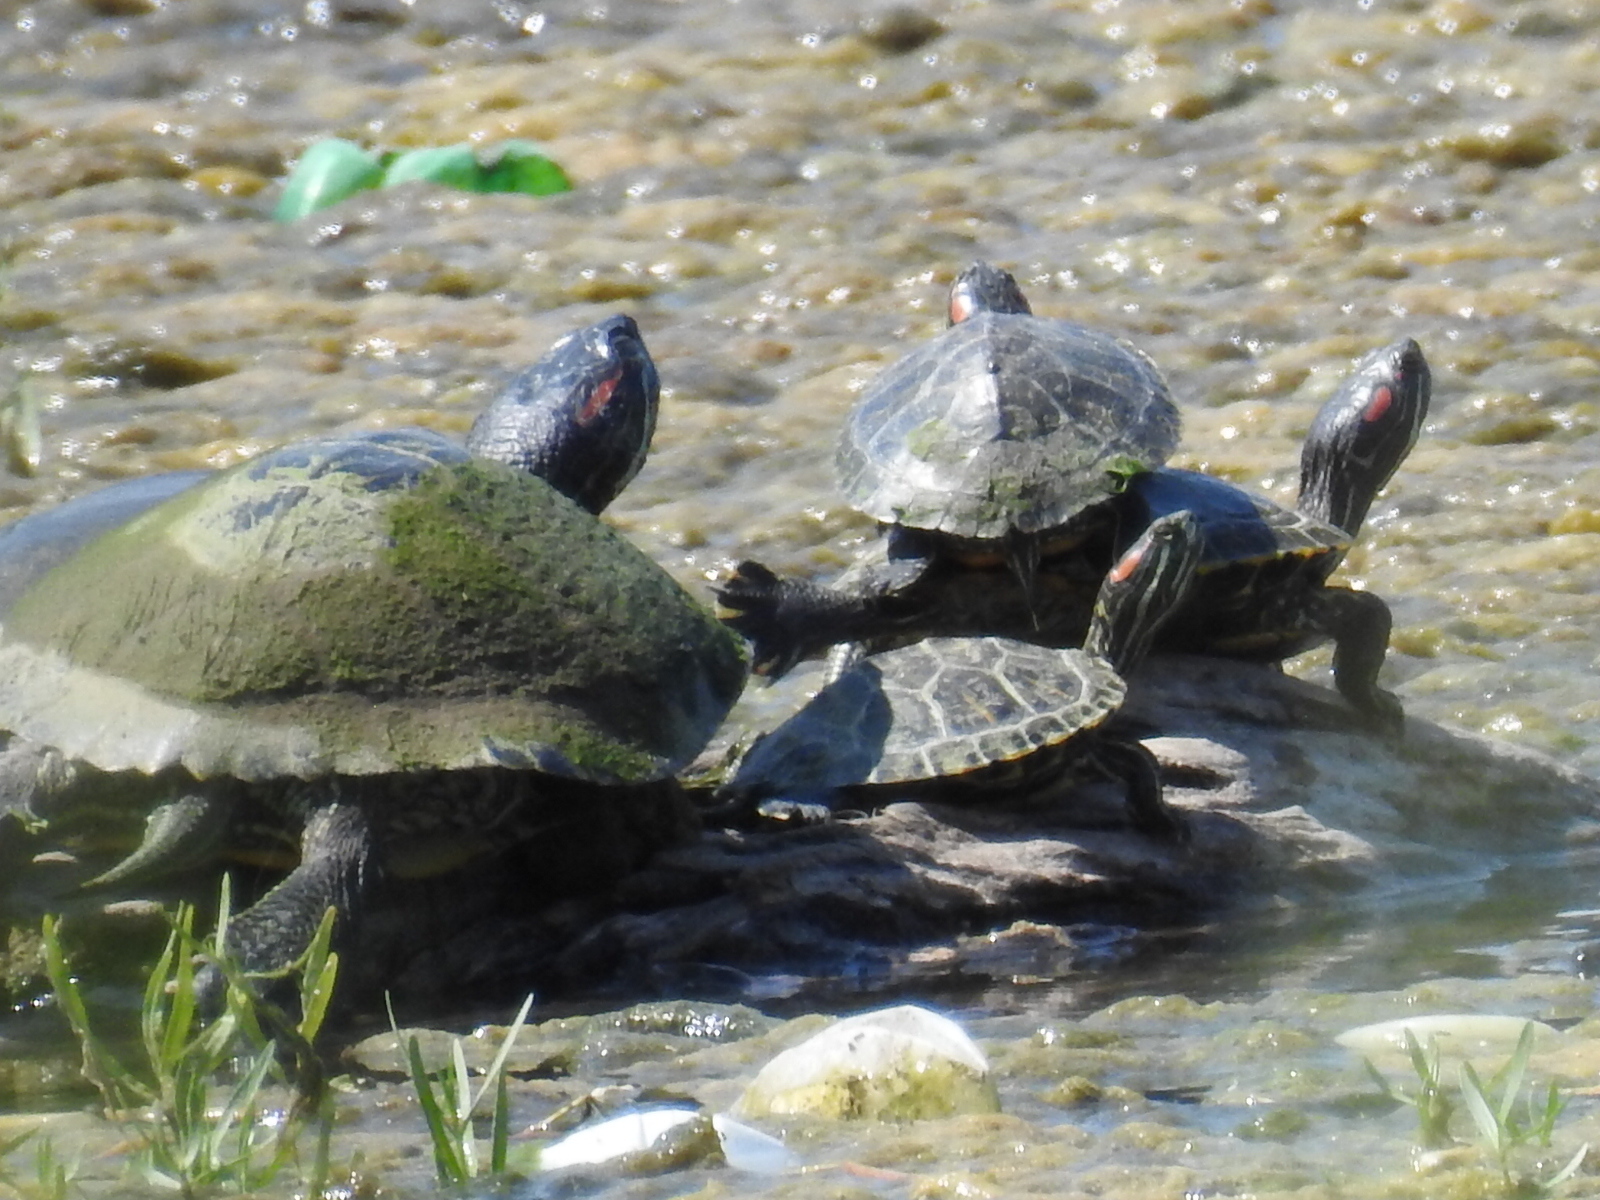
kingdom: Animalia
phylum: Chordata
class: Testudines
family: Emydidae
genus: Trachemys
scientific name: Trachemys scripta
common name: Slider
